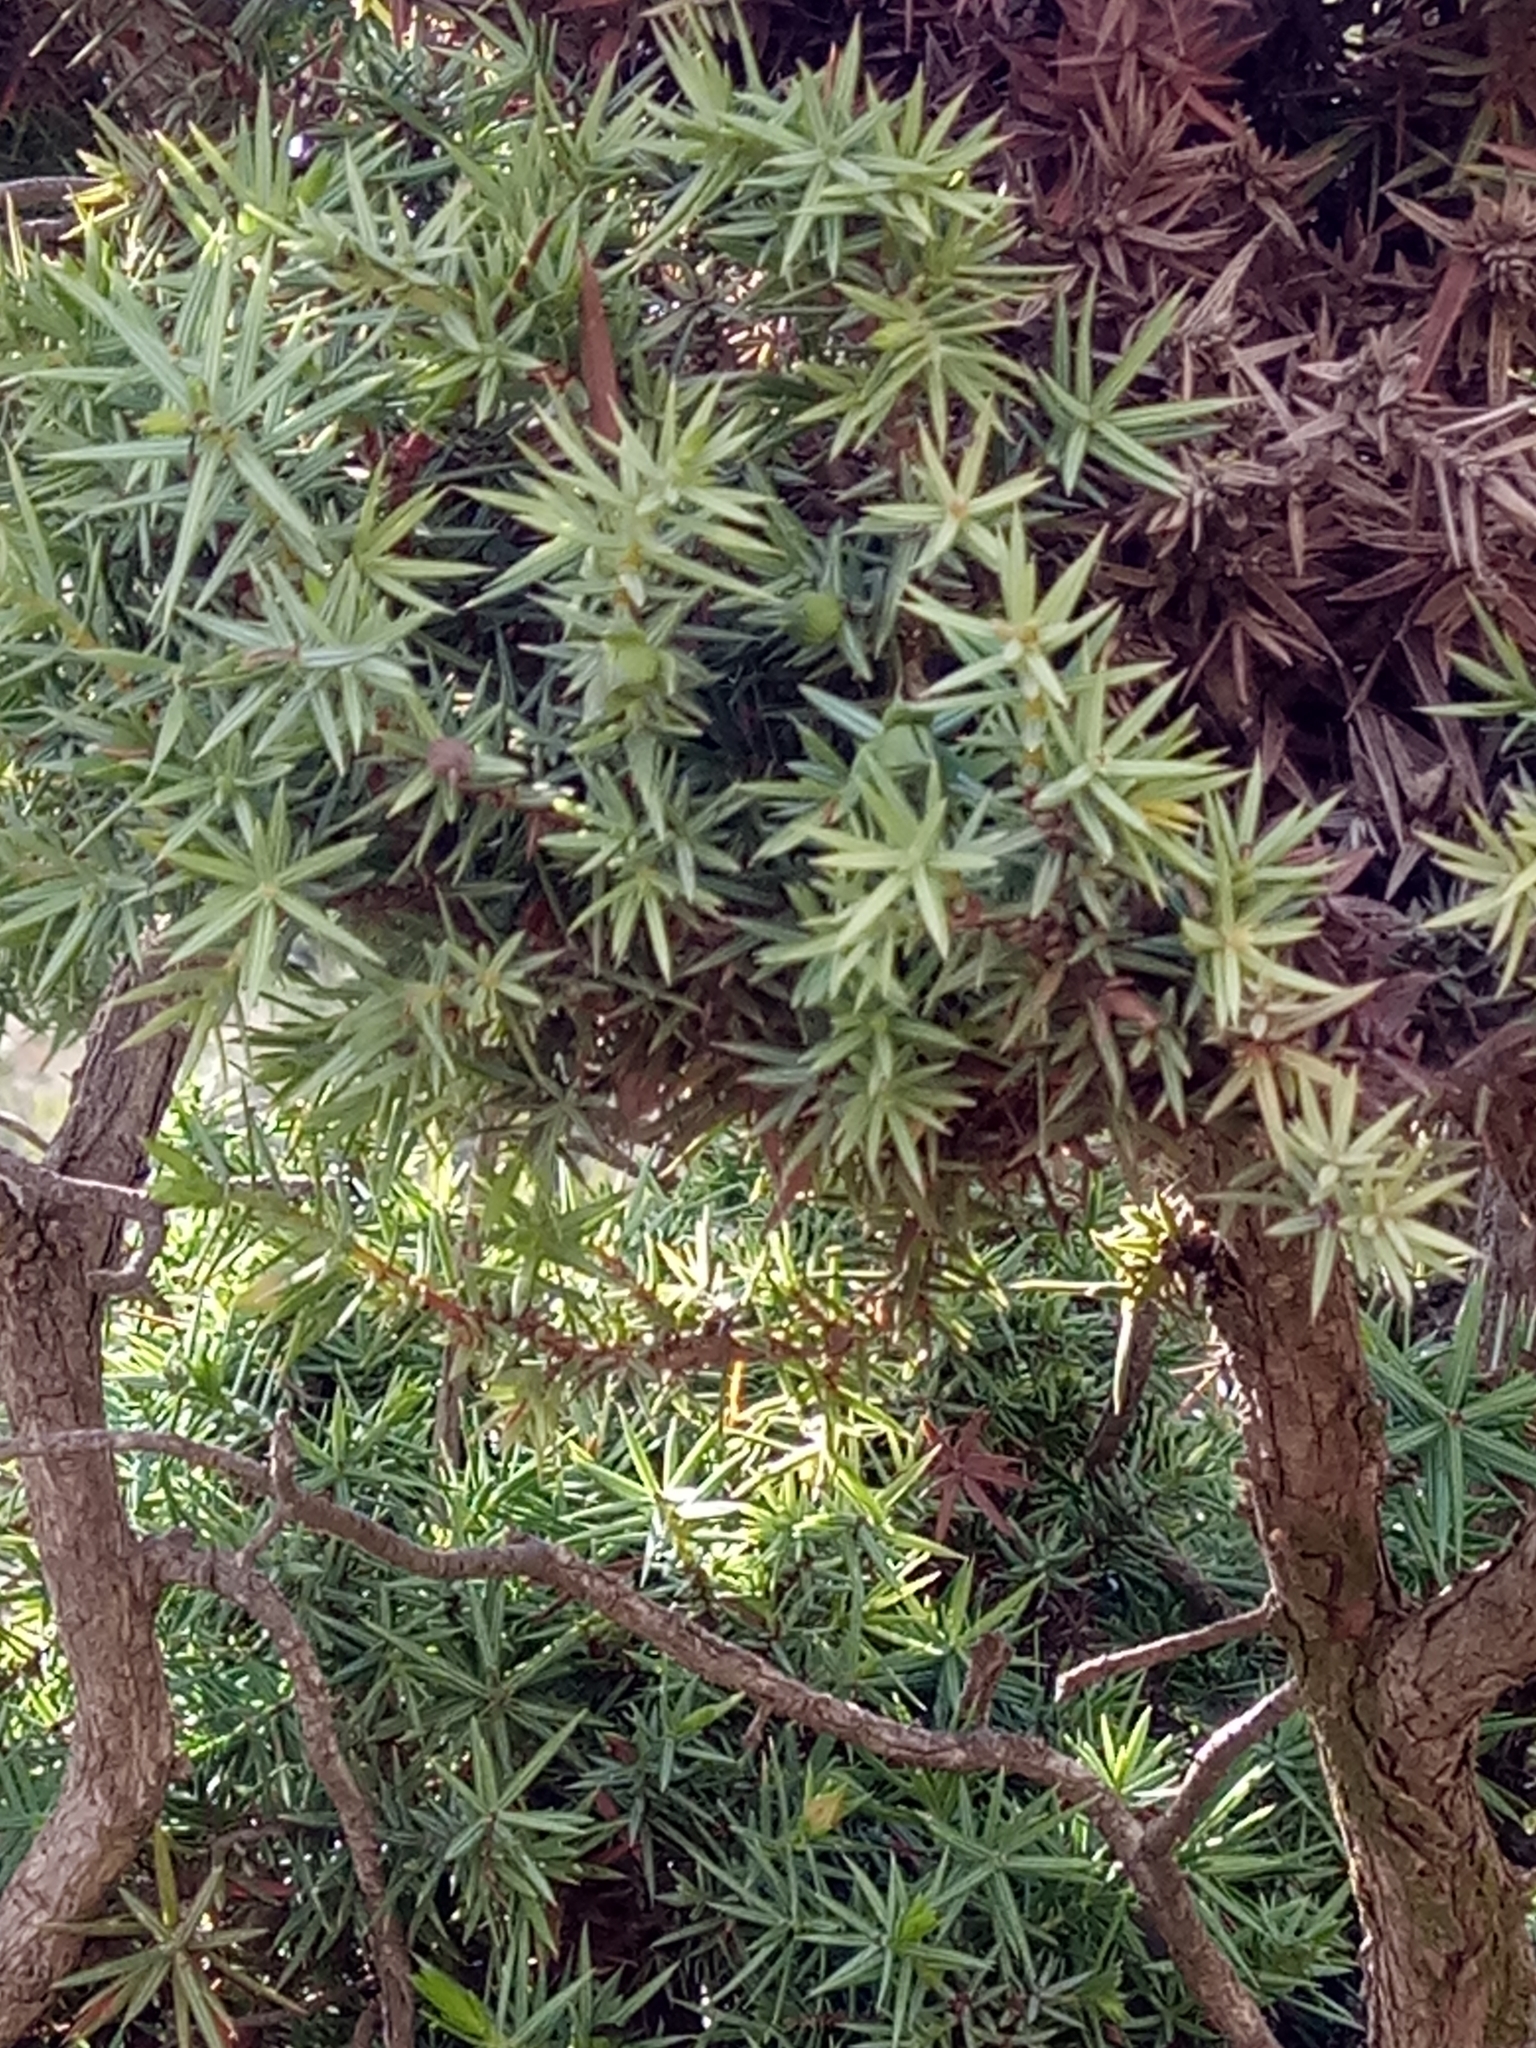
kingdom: Plantae
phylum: Tracheophyta
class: Pinopsida
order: Pinales
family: Cupressaceae
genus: Juniperus
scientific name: Juniperus oxycedrus
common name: Prickly juniper
